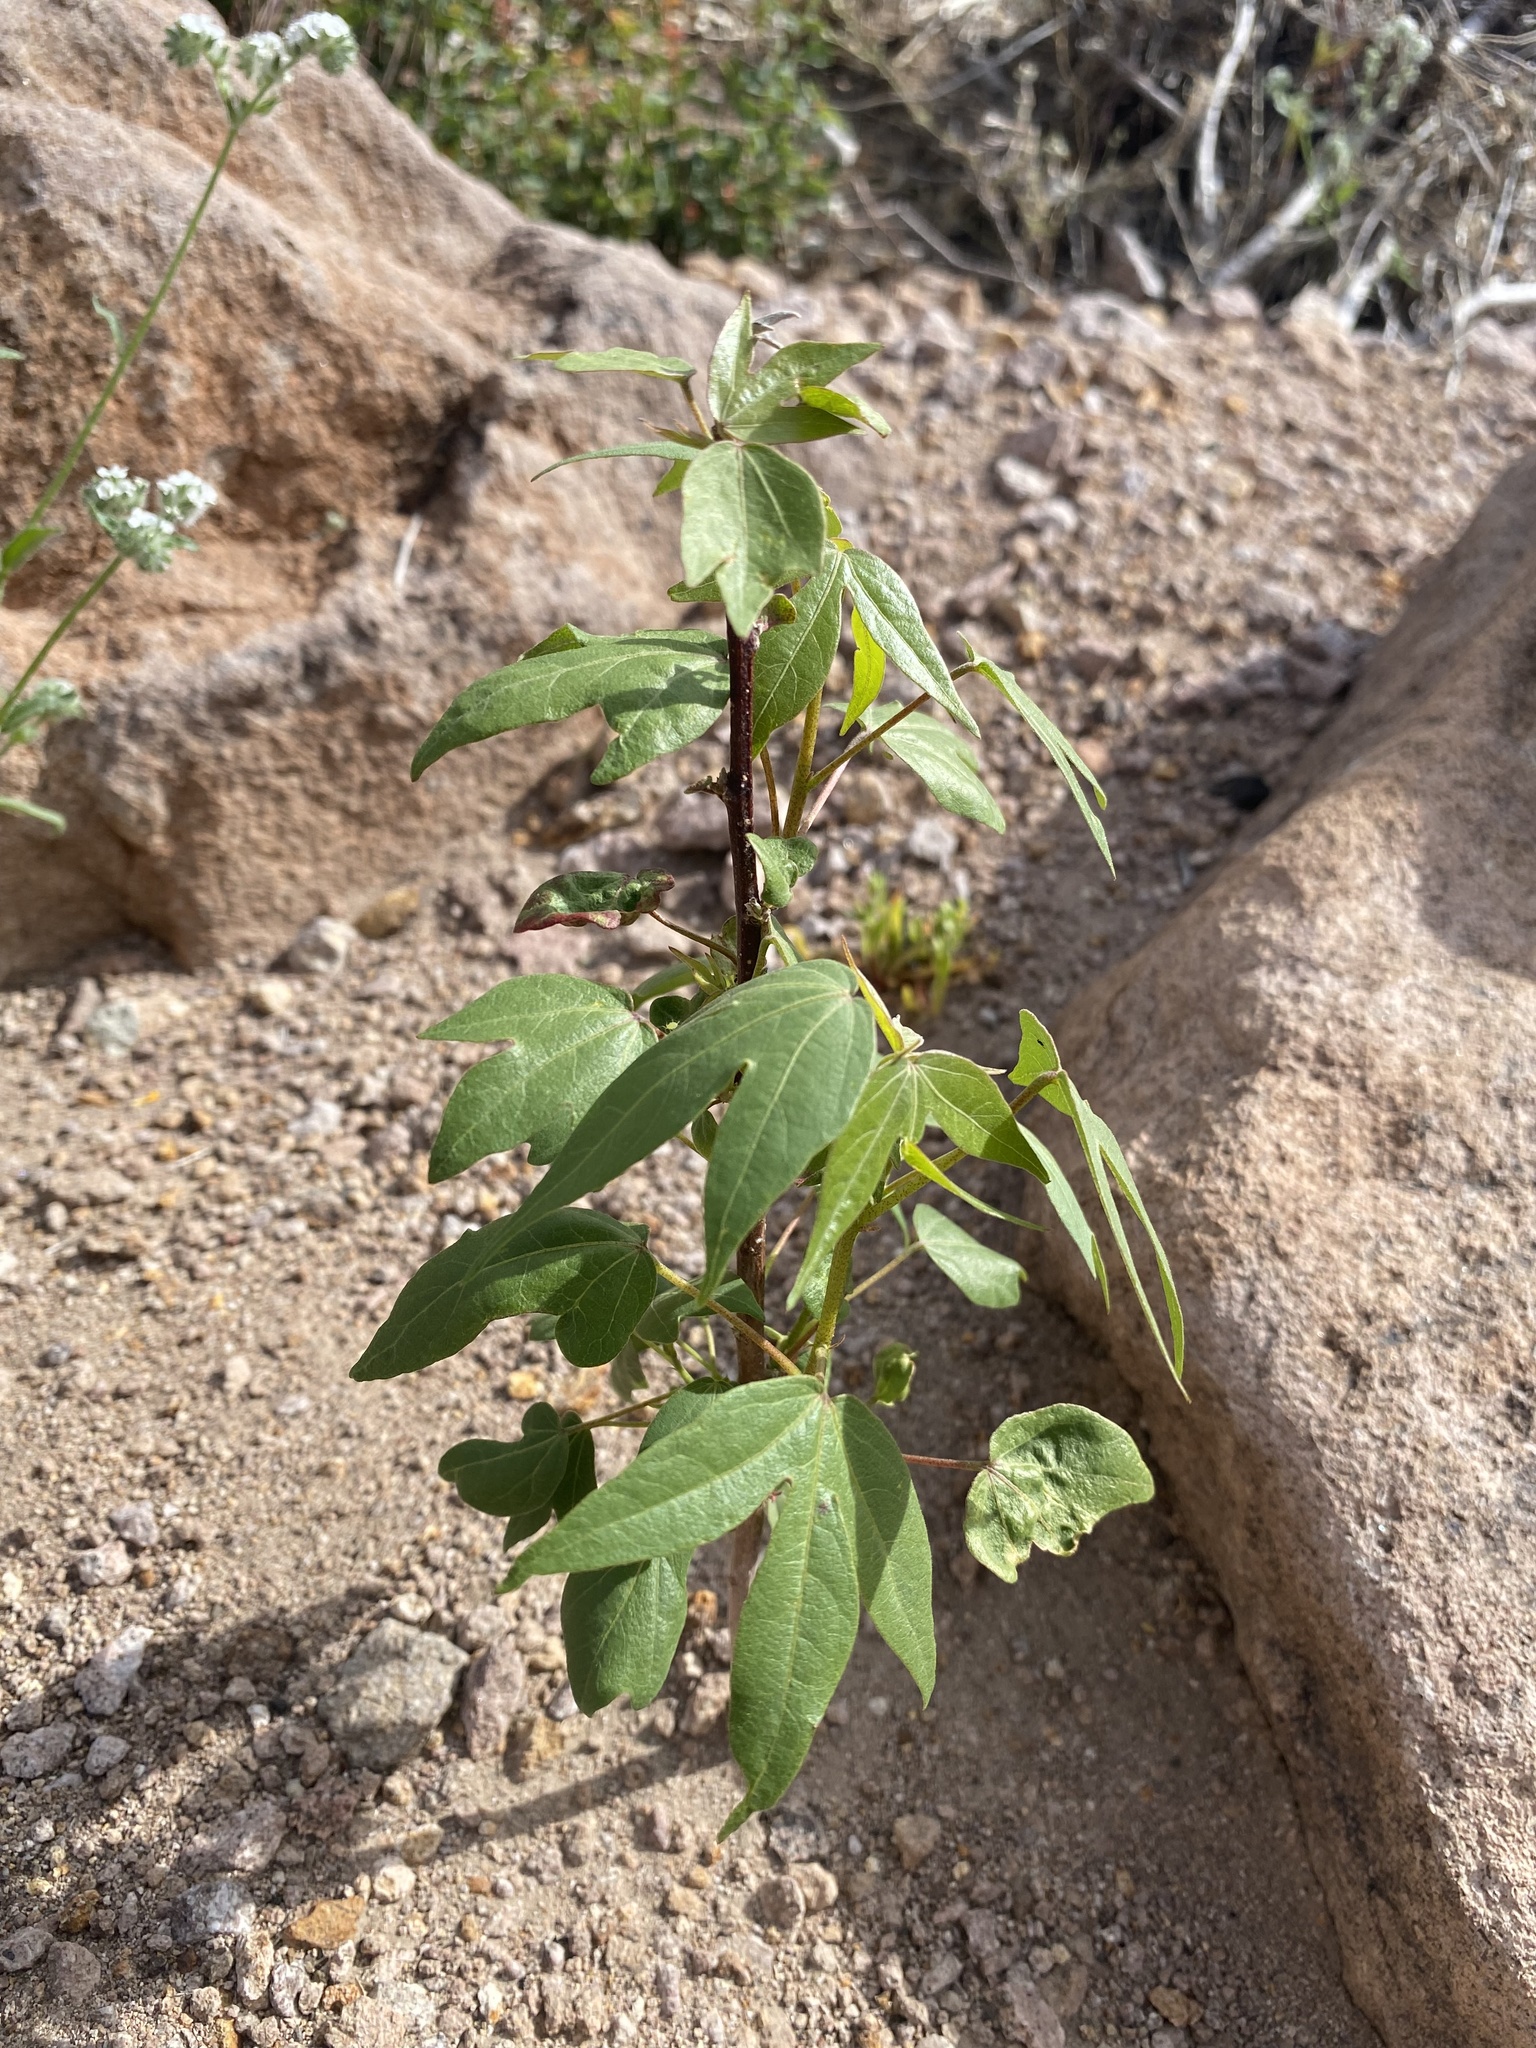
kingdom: Plantae
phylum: Tracheophyta
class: Magnoliopsida
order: Malvales
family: Malvaceae
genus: Gossypium
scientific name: Gossypium thurberi
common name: Desert cotton
